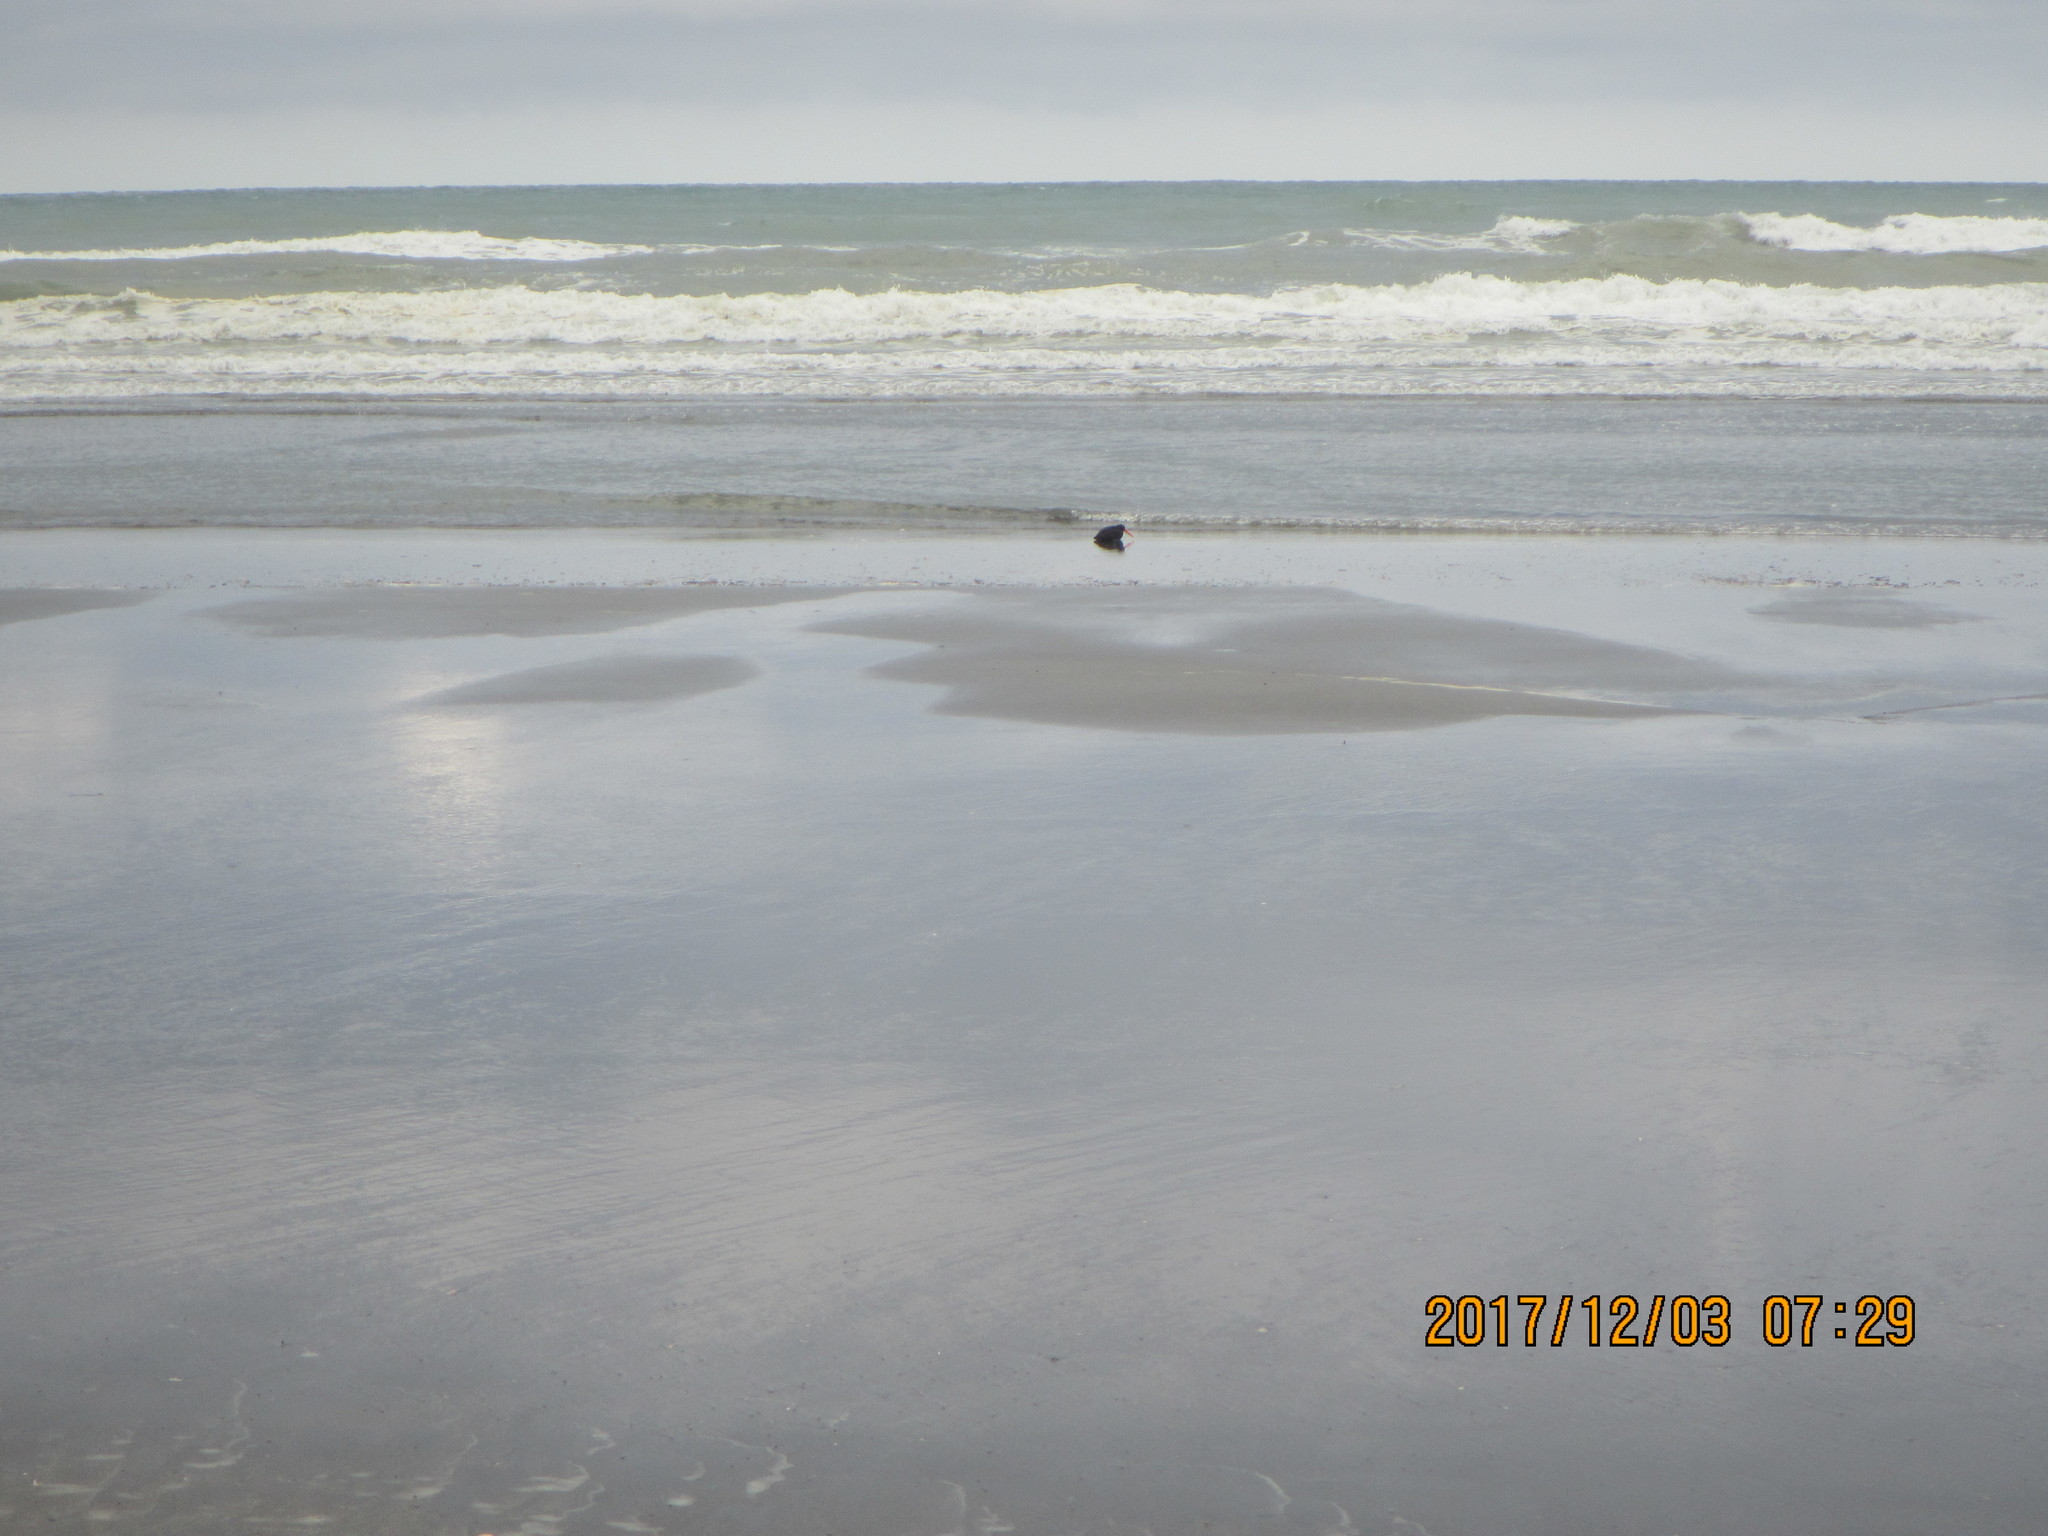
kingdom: Animalia
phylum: Chordata
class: Aves
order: Charadriiformes
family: Haematopodidae
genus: Haematopus
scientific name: Haematopus unicolor
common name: Variable oystercatcher
